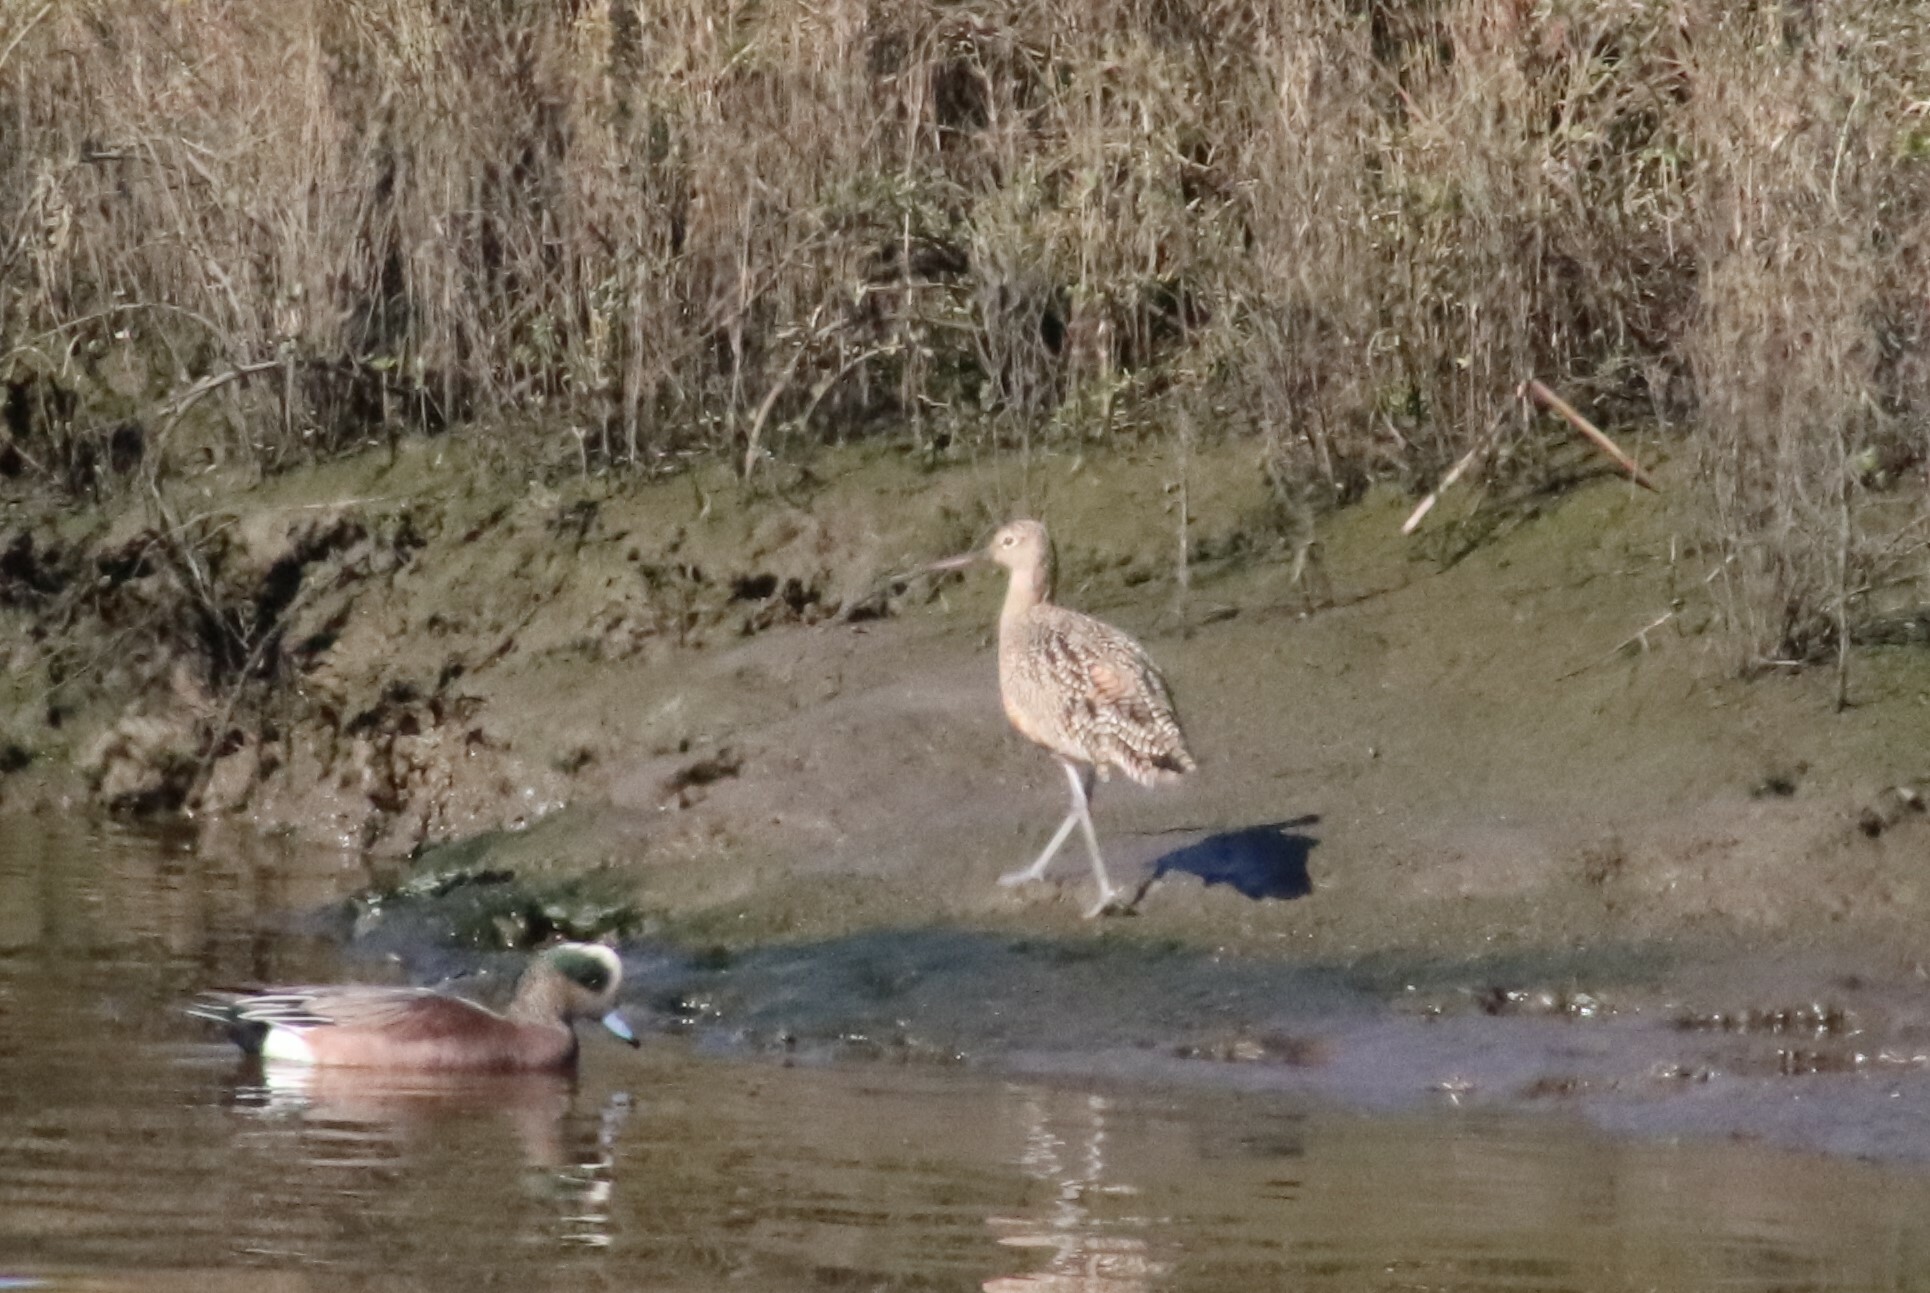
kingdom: Animalia
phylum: Chordata
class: Aves
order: Charadriiformes
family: Scolopacidae
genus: Numenius
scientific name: Numenius americanus
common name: Long-billed curlew
